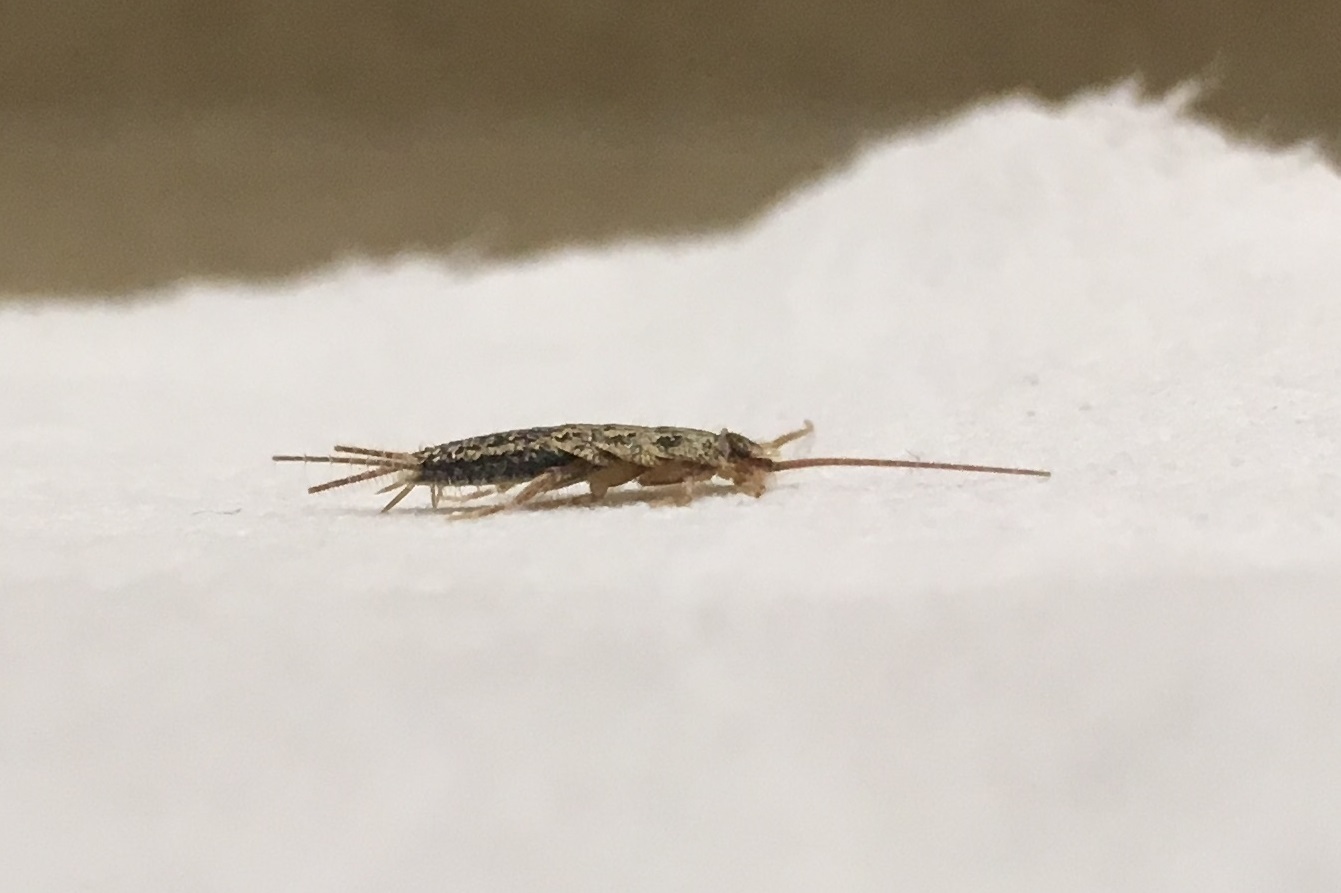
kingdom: Animalia
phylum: Arthropoda
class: Insecta
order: Zygentoma
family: Lepismatidae
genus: Ctenolepisma
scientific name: Ctenolepisma lineata
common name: Four-lined silverfish
